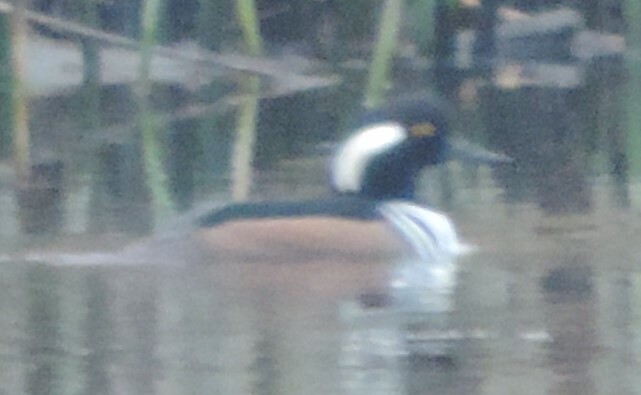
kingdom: Animalia
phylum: Chordata
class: Aves
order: Anseriformes
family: Anatidae
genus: Lophodytes
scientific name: Lophodytes cucullatus
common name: Hooded merganser
